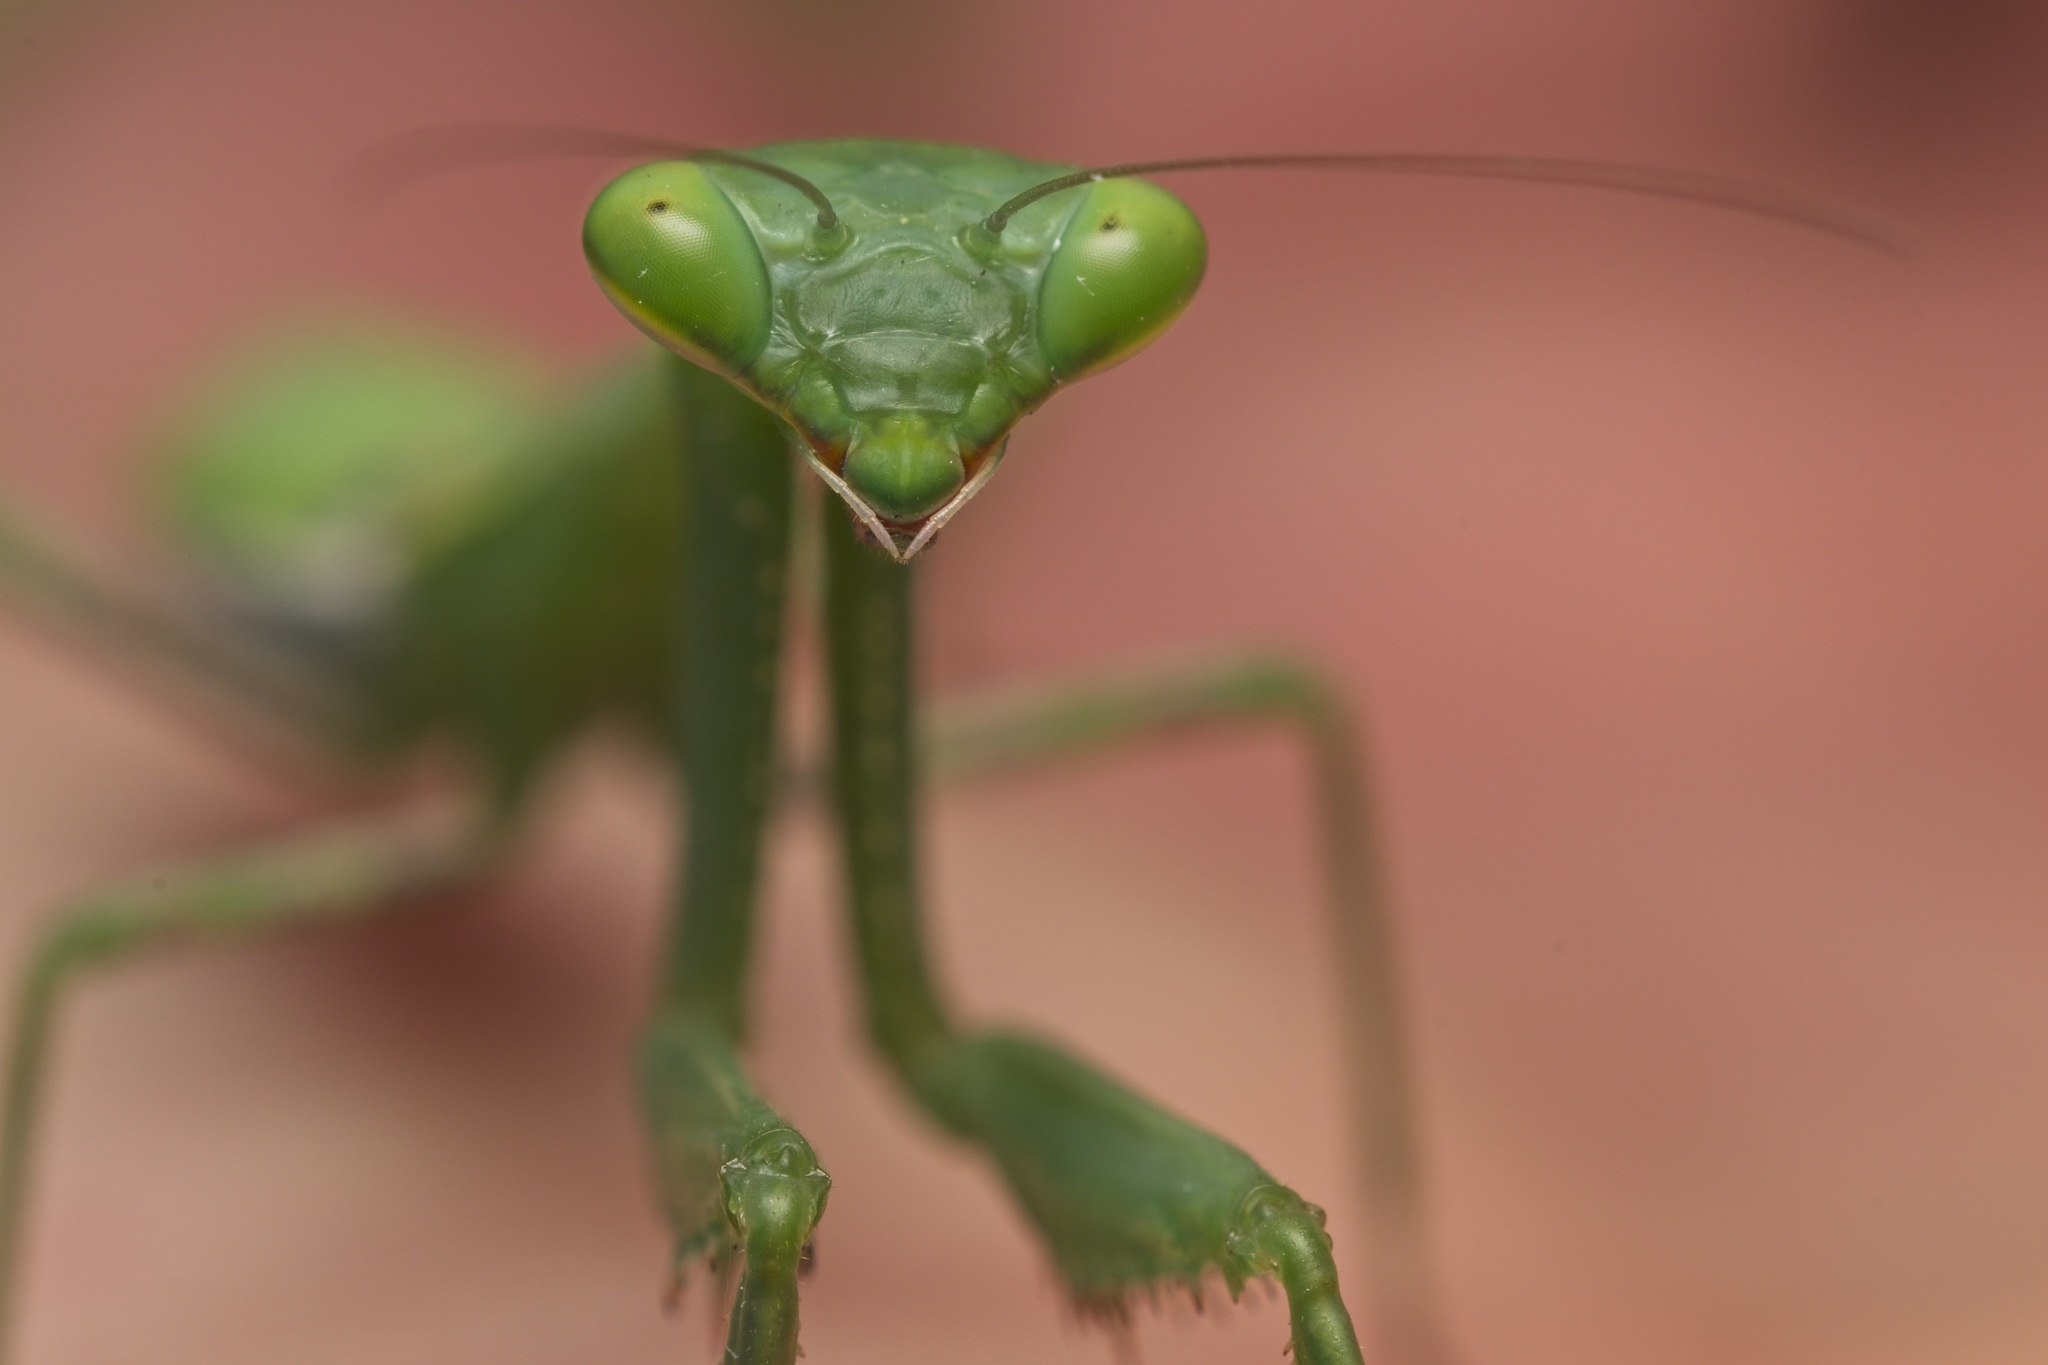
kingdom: Animalia
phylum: Arthropoda
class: Insecta
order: Mantodea
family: Miomantidae
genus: Miomantis
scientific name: Miomantis caffra
